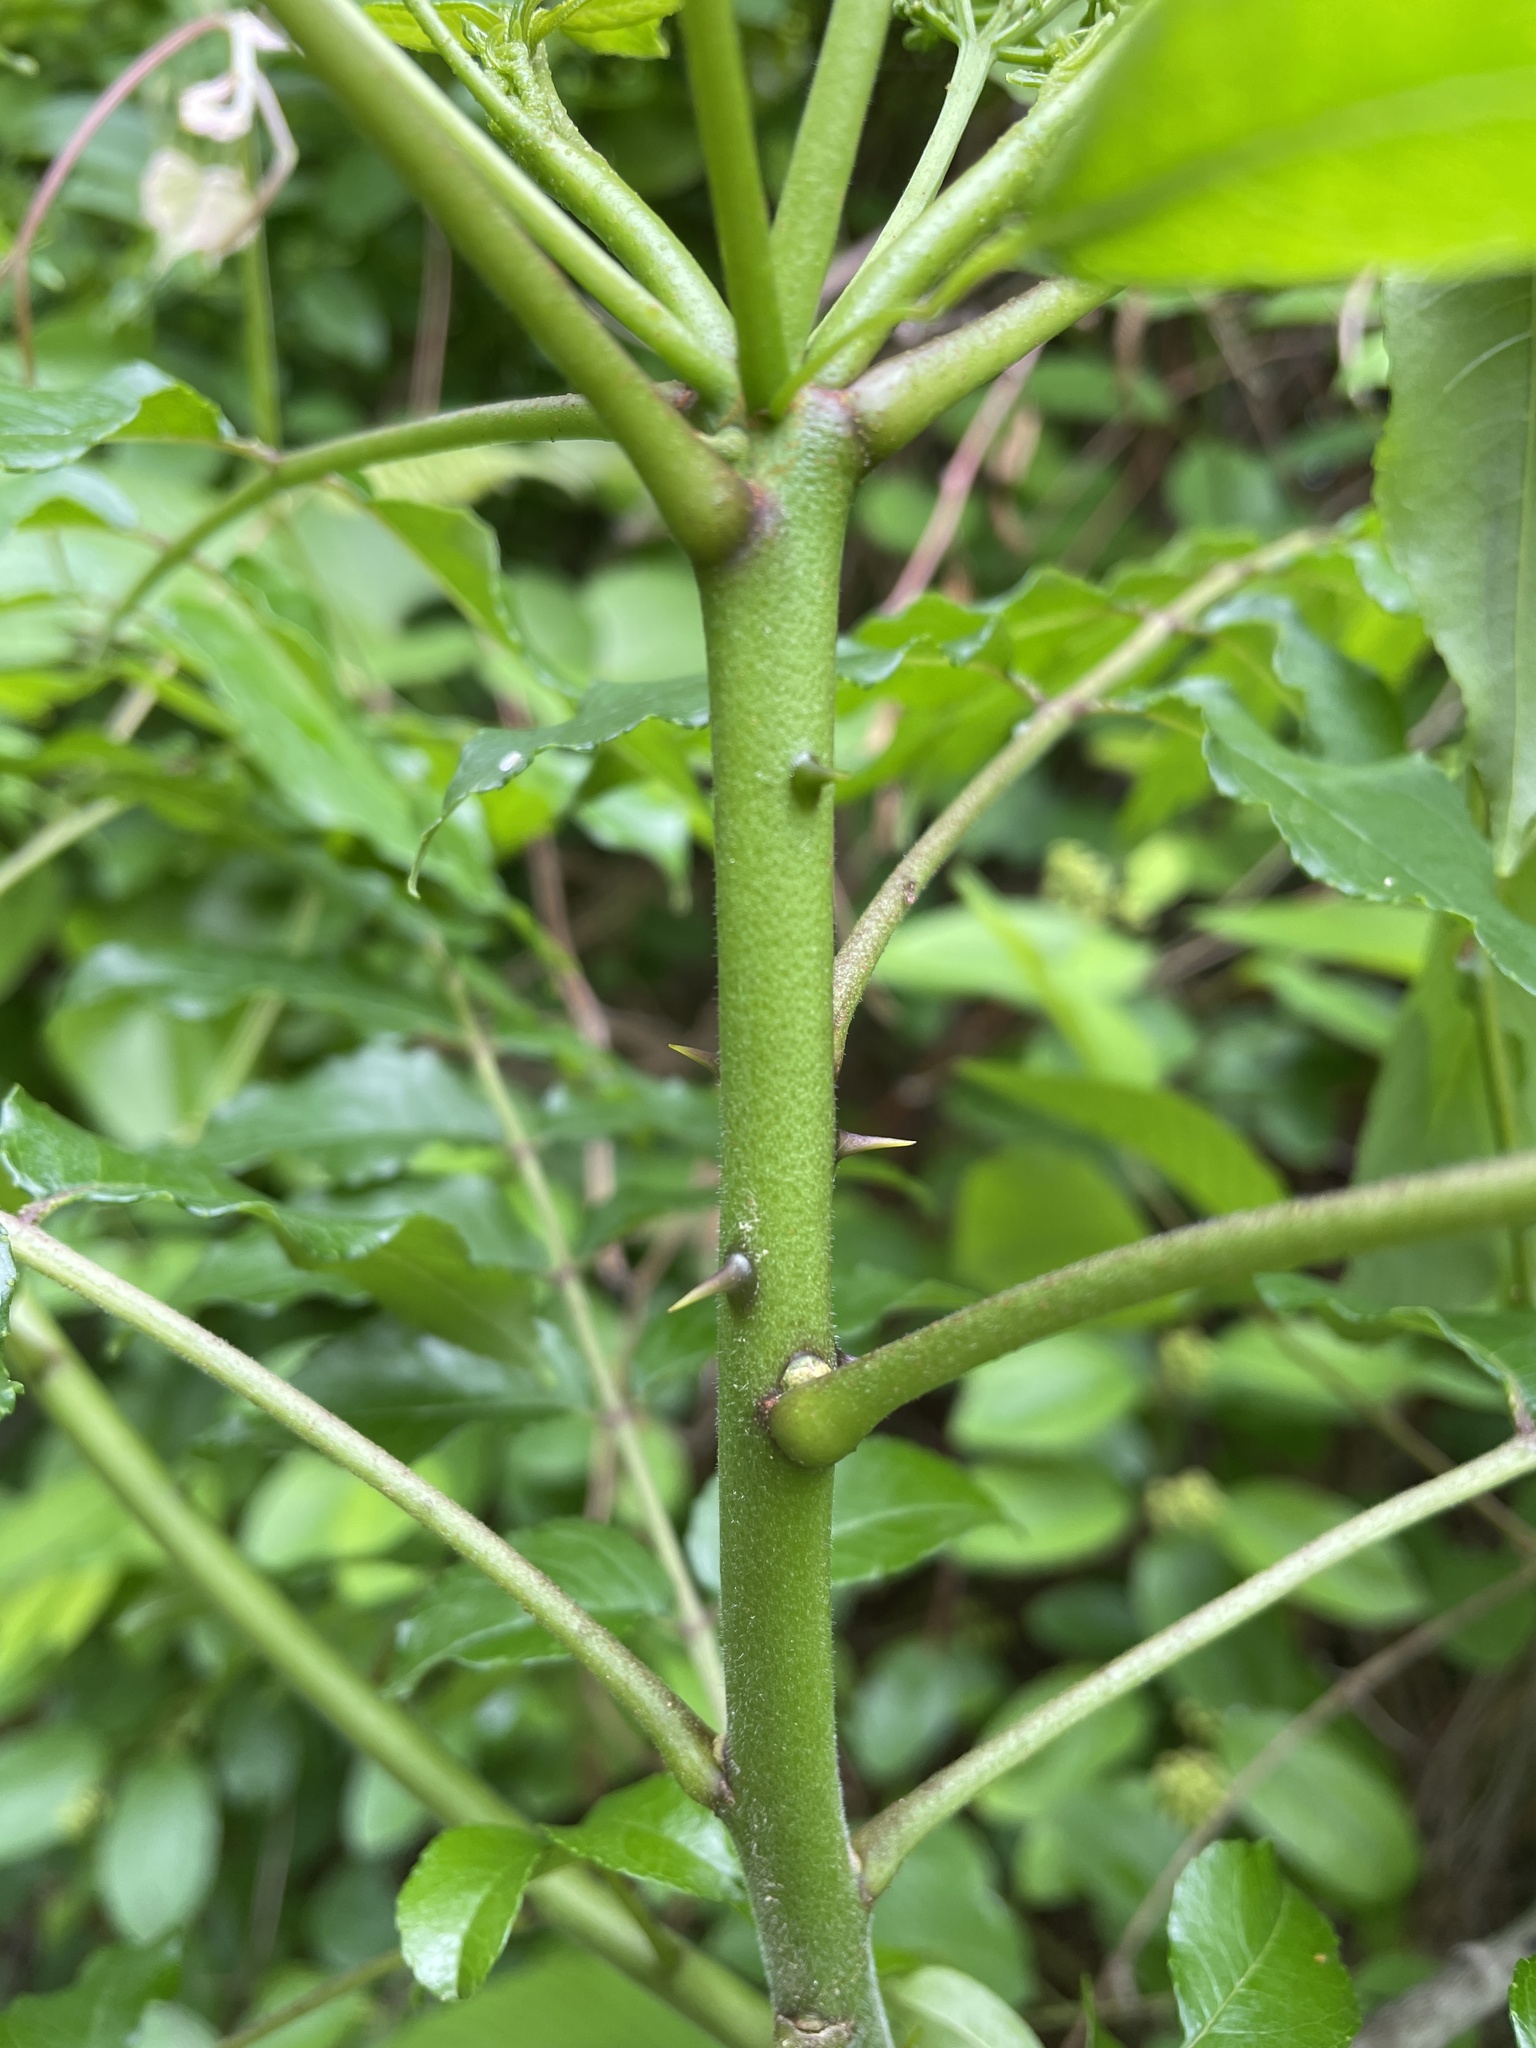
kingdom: Plantae
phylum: Tracheophyta
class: Magnoliopsida
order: Sapindales
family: Rutaceae
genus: Zanthoxylum
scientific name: Zanthoxylum clava-herculis
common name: Hercules'-club
